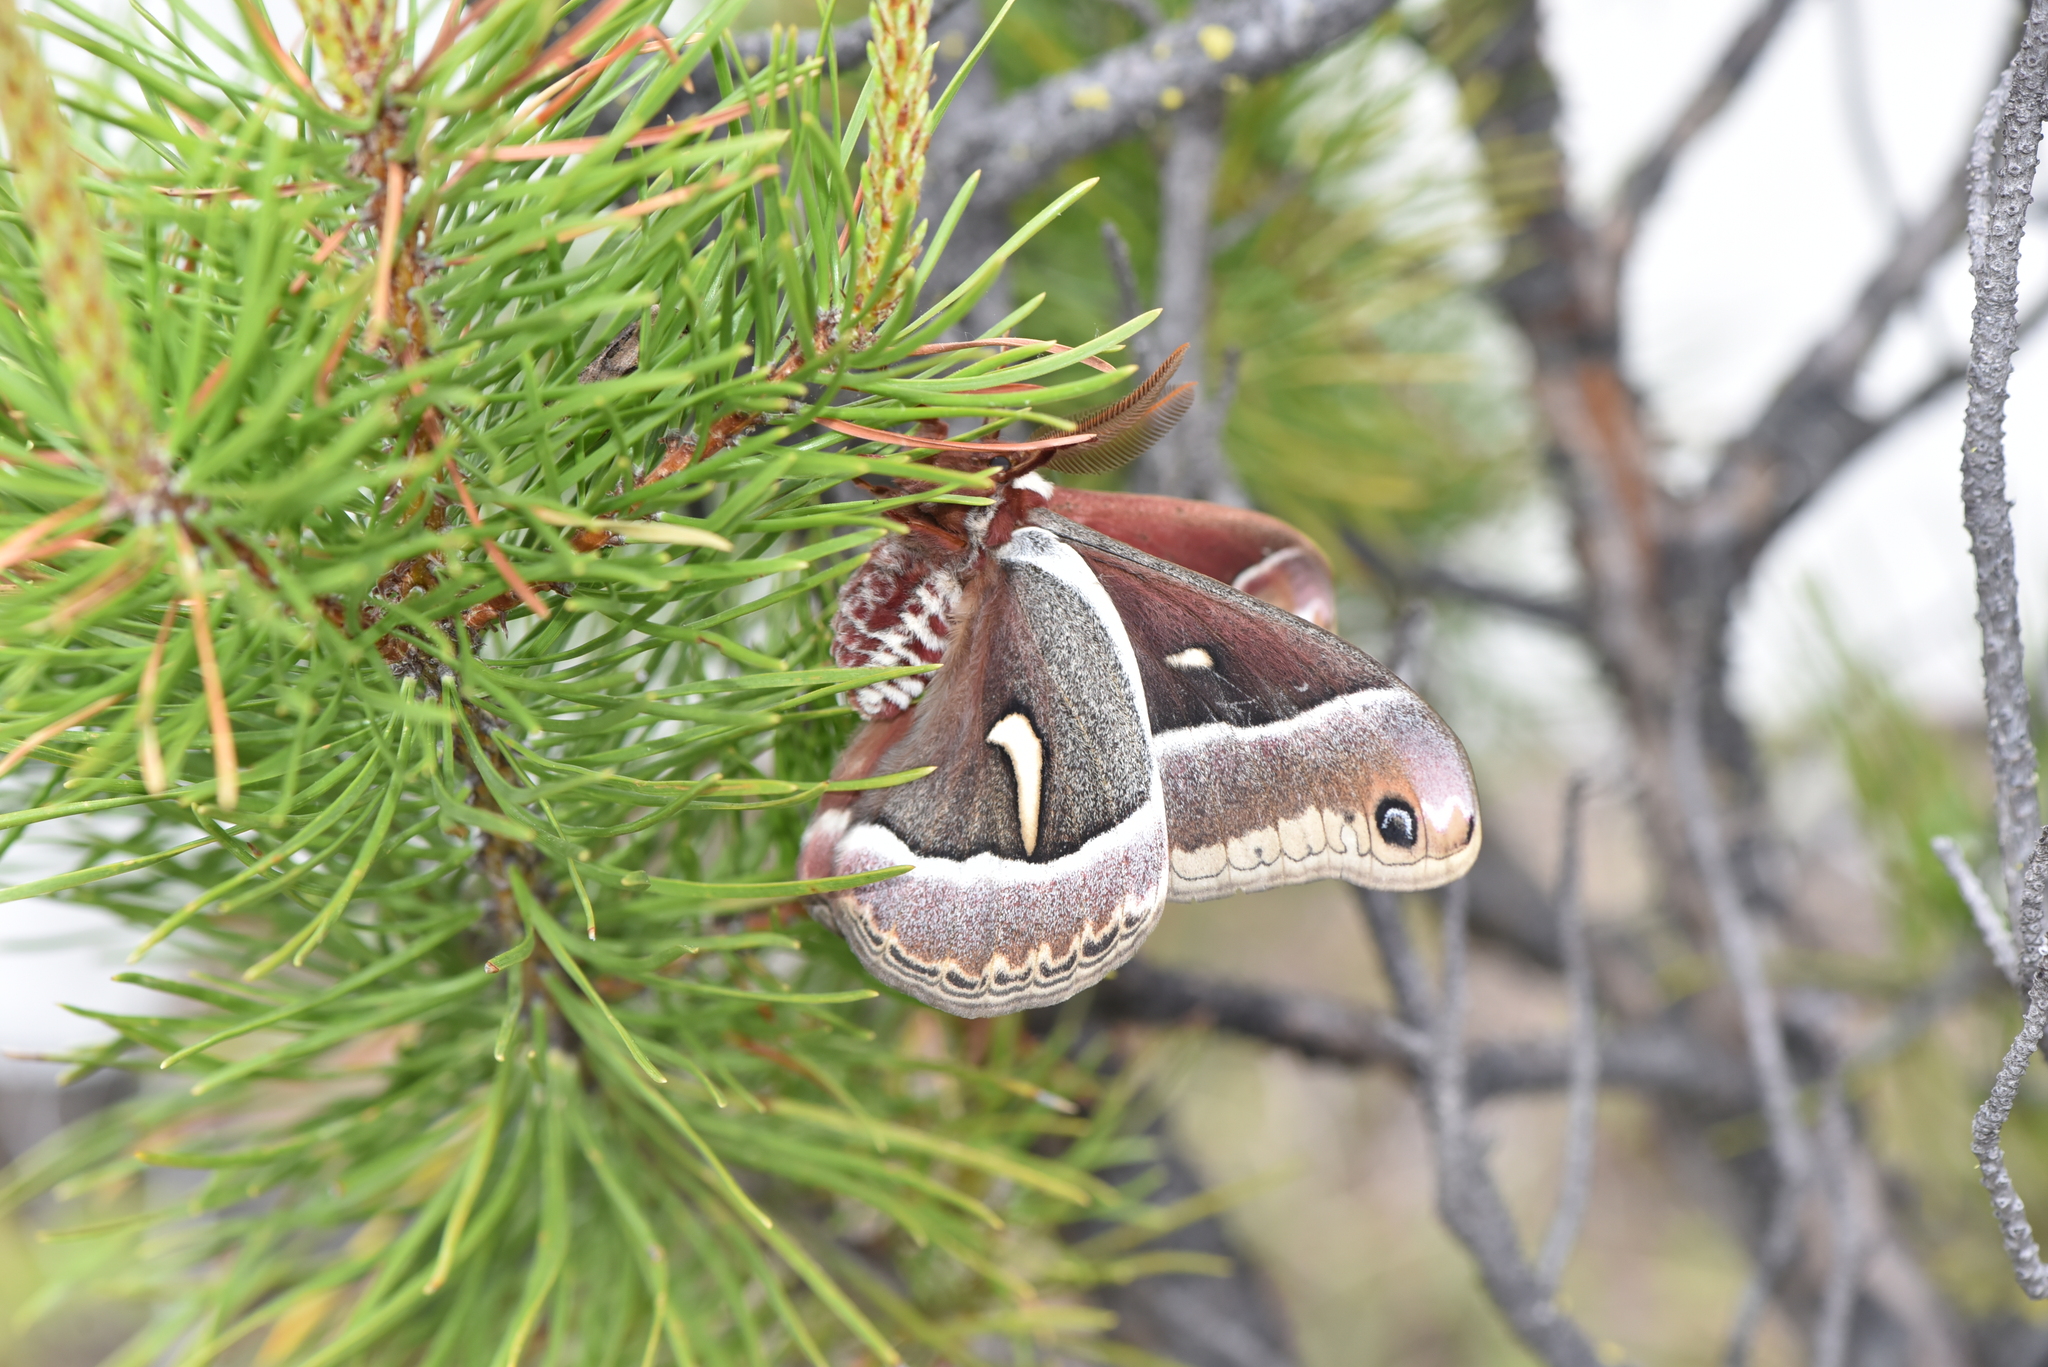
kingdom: Animalia
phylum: Arthropoda
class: Insecta
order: Lepidoptera
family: Saturniidae
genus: Hyalophora
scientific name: Hyalophora euryalus
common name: Ceanothus silkmoth
